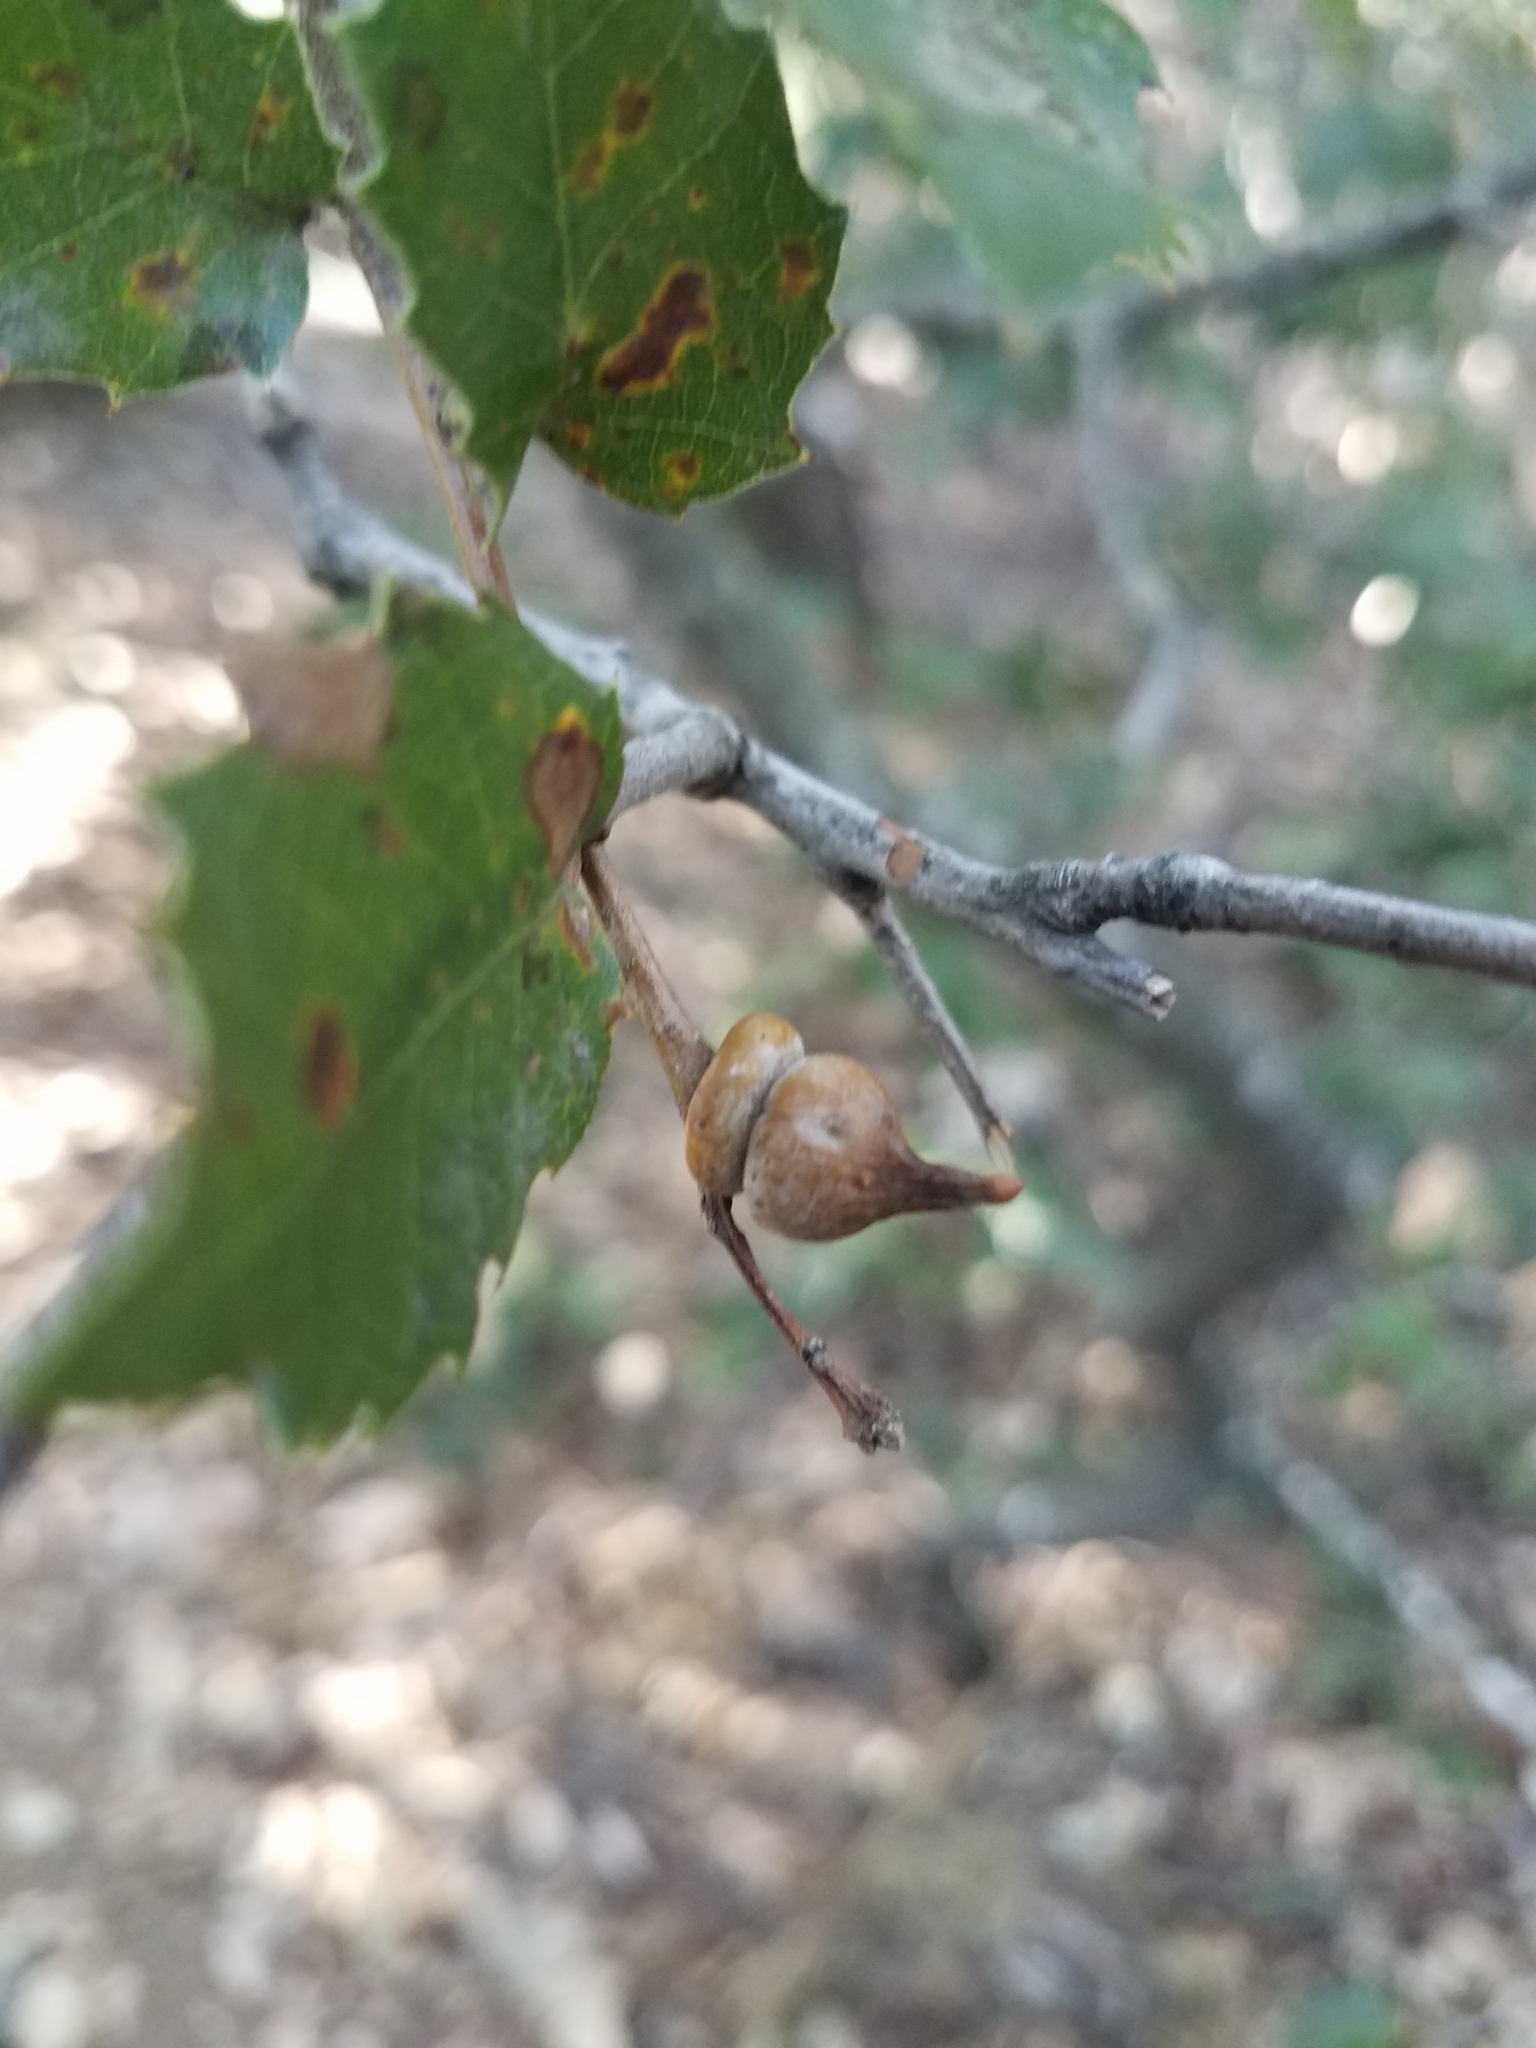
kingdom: Animalia
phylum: Arthropoda
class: Insecta
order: Hymenoptera
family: Cynipidae
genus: Heteroecus
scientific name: Heteroecus
